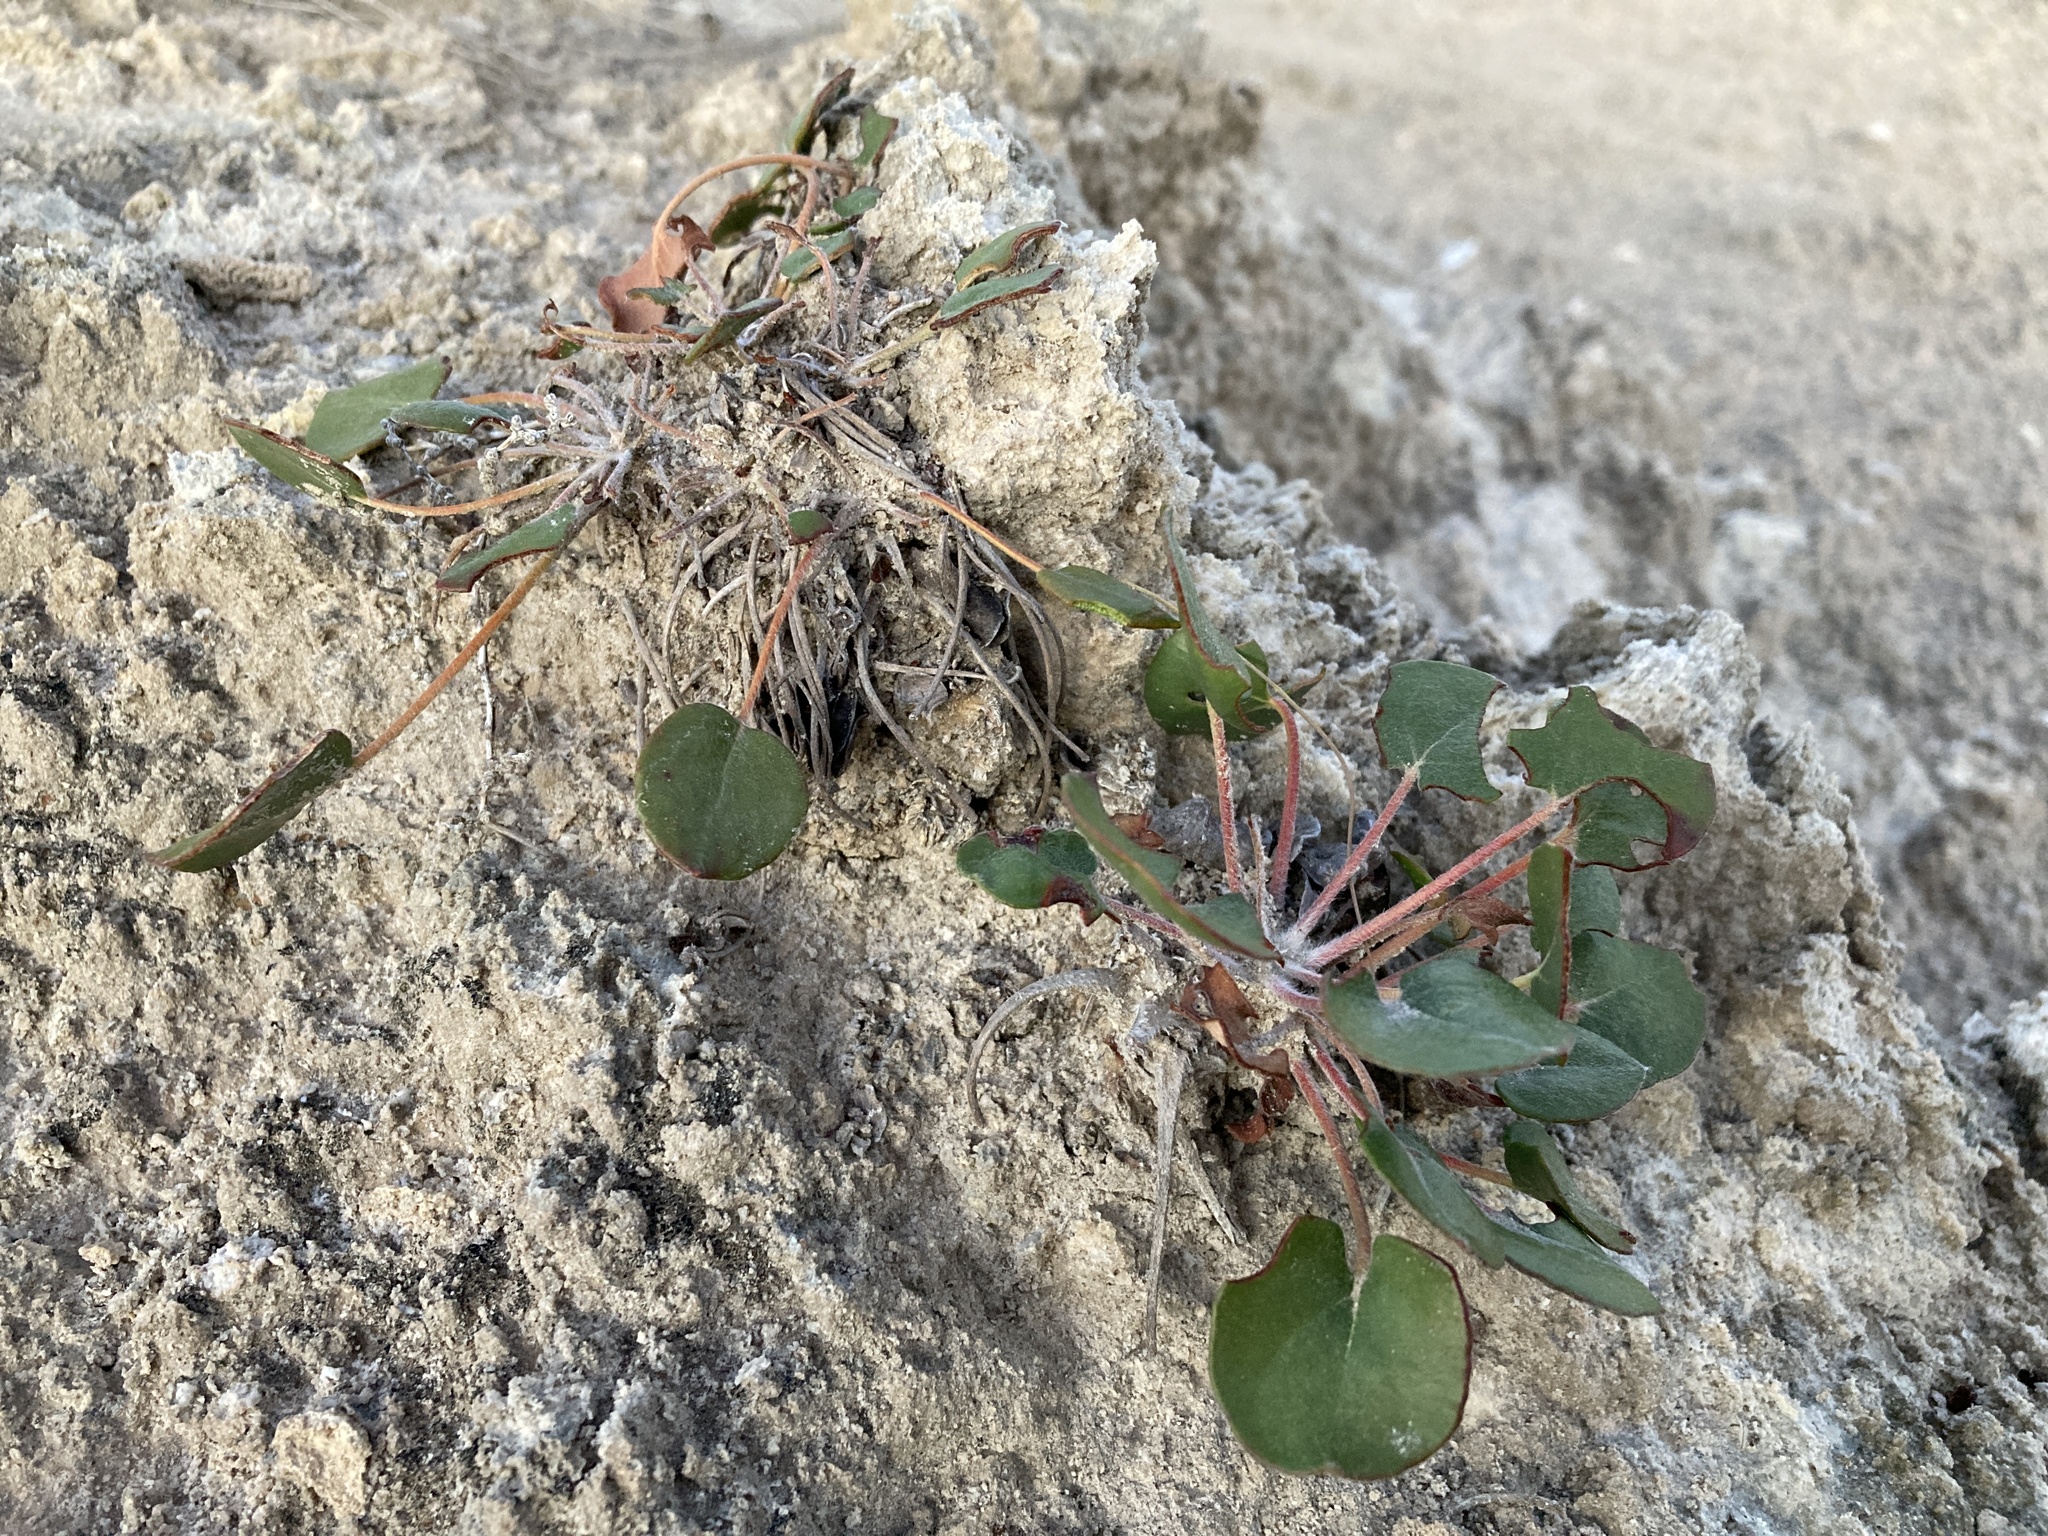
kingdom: Plantae
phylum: Tracheophyta
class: Magnoliopsida
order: Caryophyllales
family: Polygonaceae
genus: Eriogonum
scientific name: Eriogonum gypsophilum
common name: Seven river hills-buckwheat
